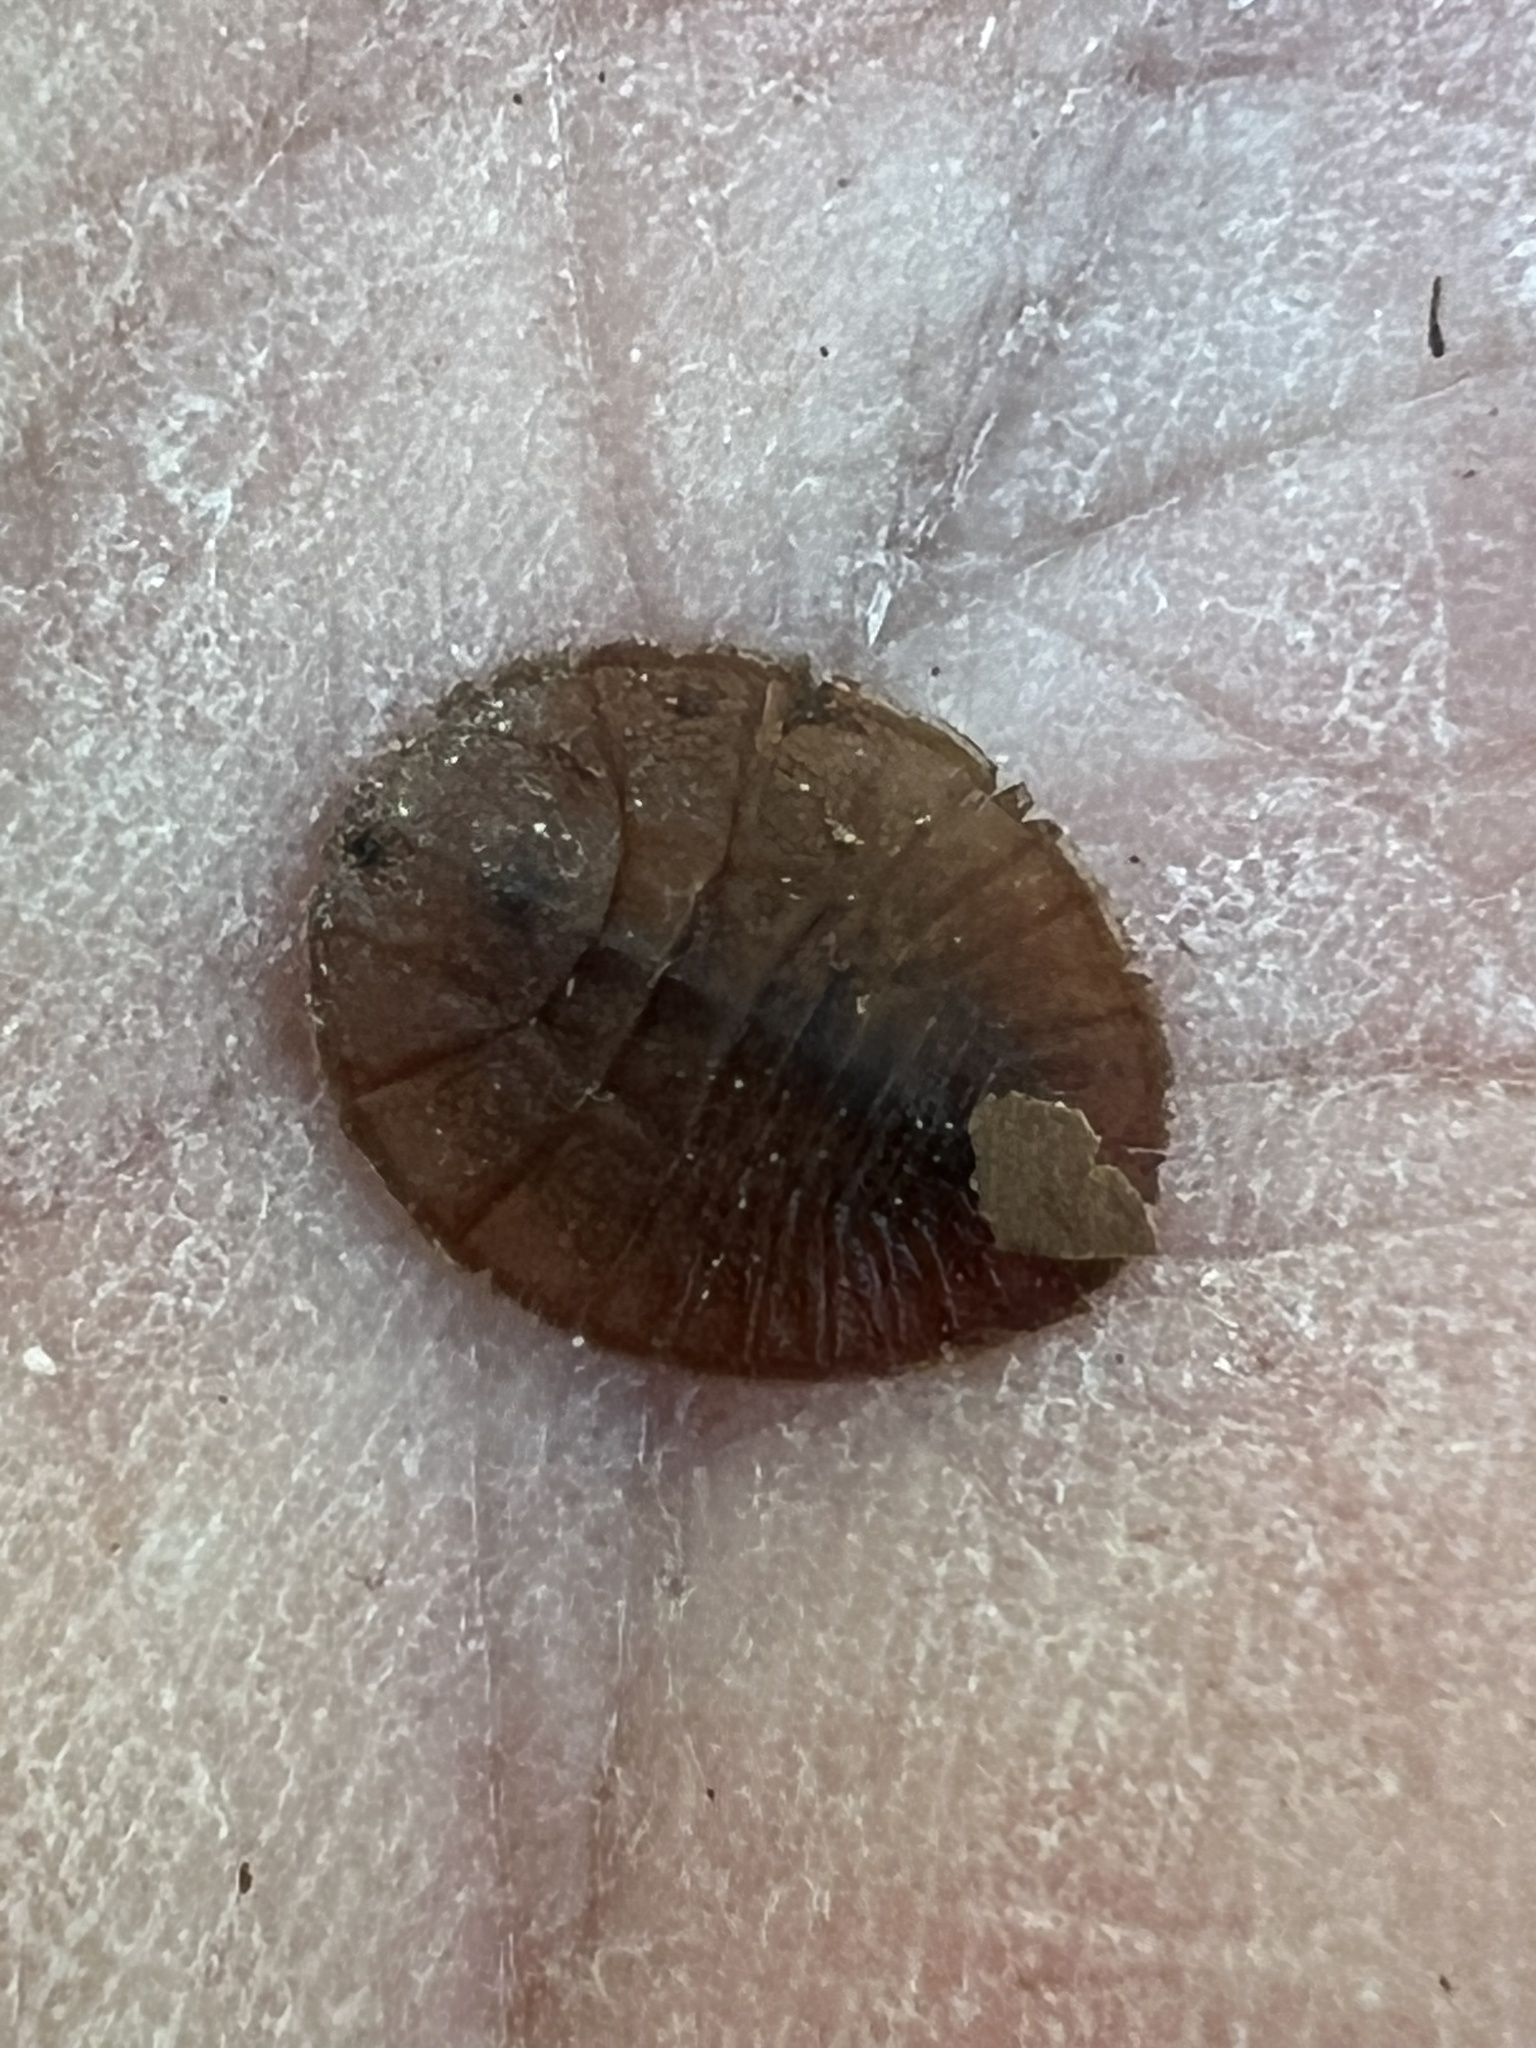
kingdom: Animalia
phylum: Arthropoda
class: Insecta
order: Coleoptera
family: Psephenidae
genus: Psephenus
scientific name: Psephenus herricki
